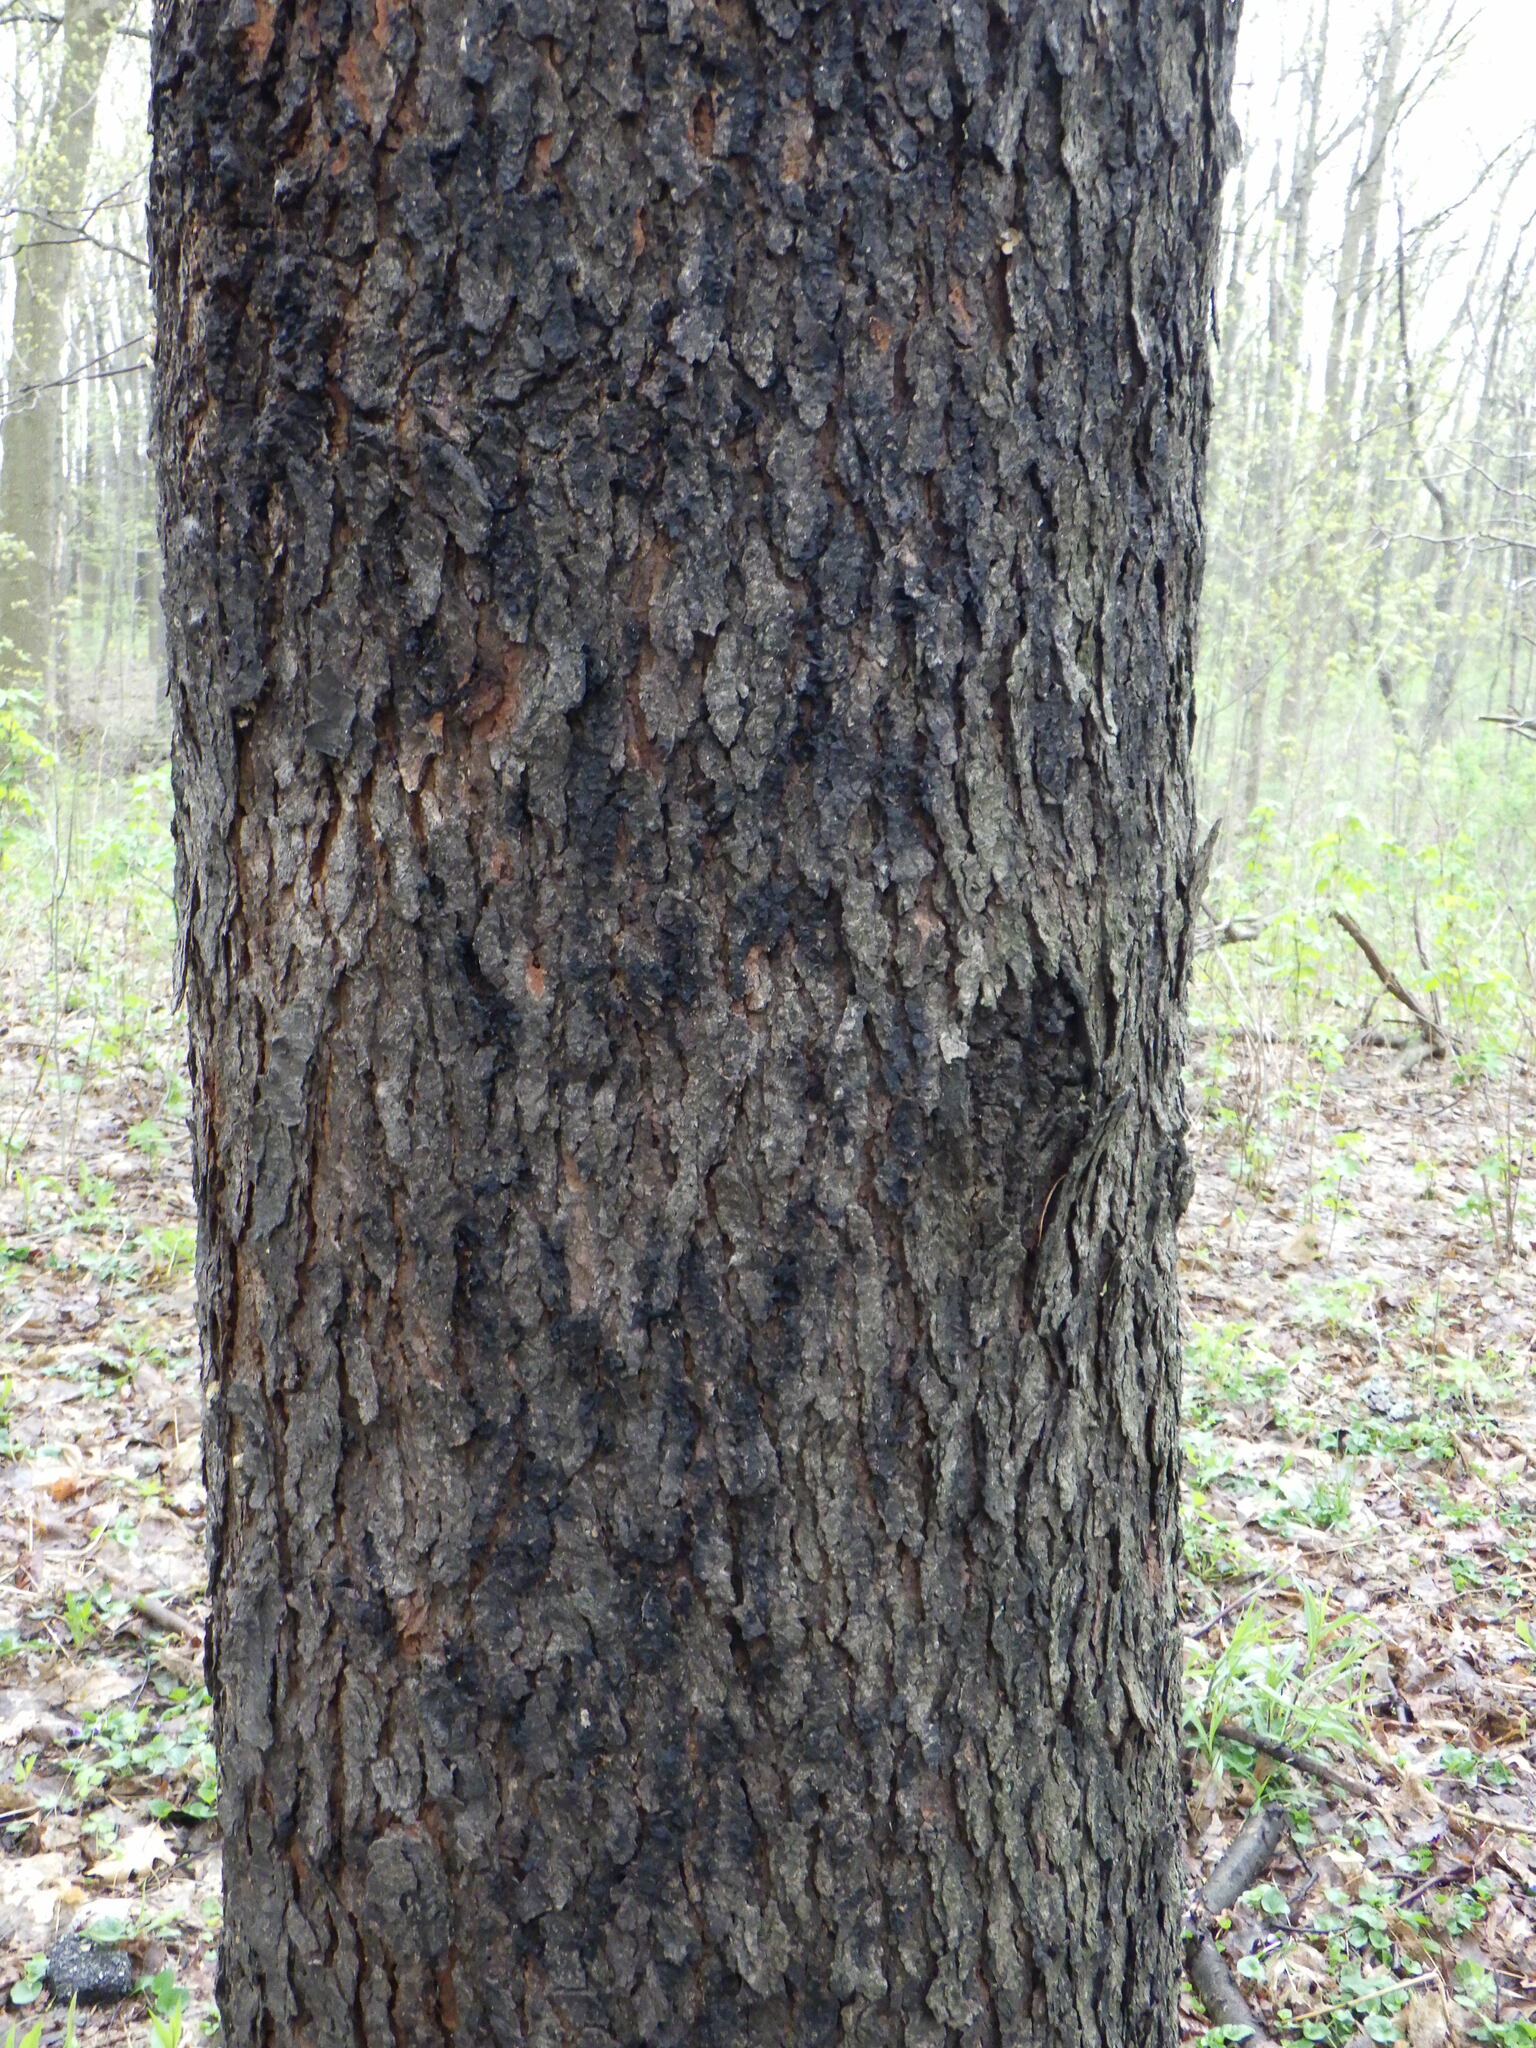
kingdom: Plantae
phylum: Tracheophyta
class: Magnoliopsida
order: Rosales
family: Rosaceae
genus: Prunus
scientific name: Prunus serotina
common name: Black cherry
